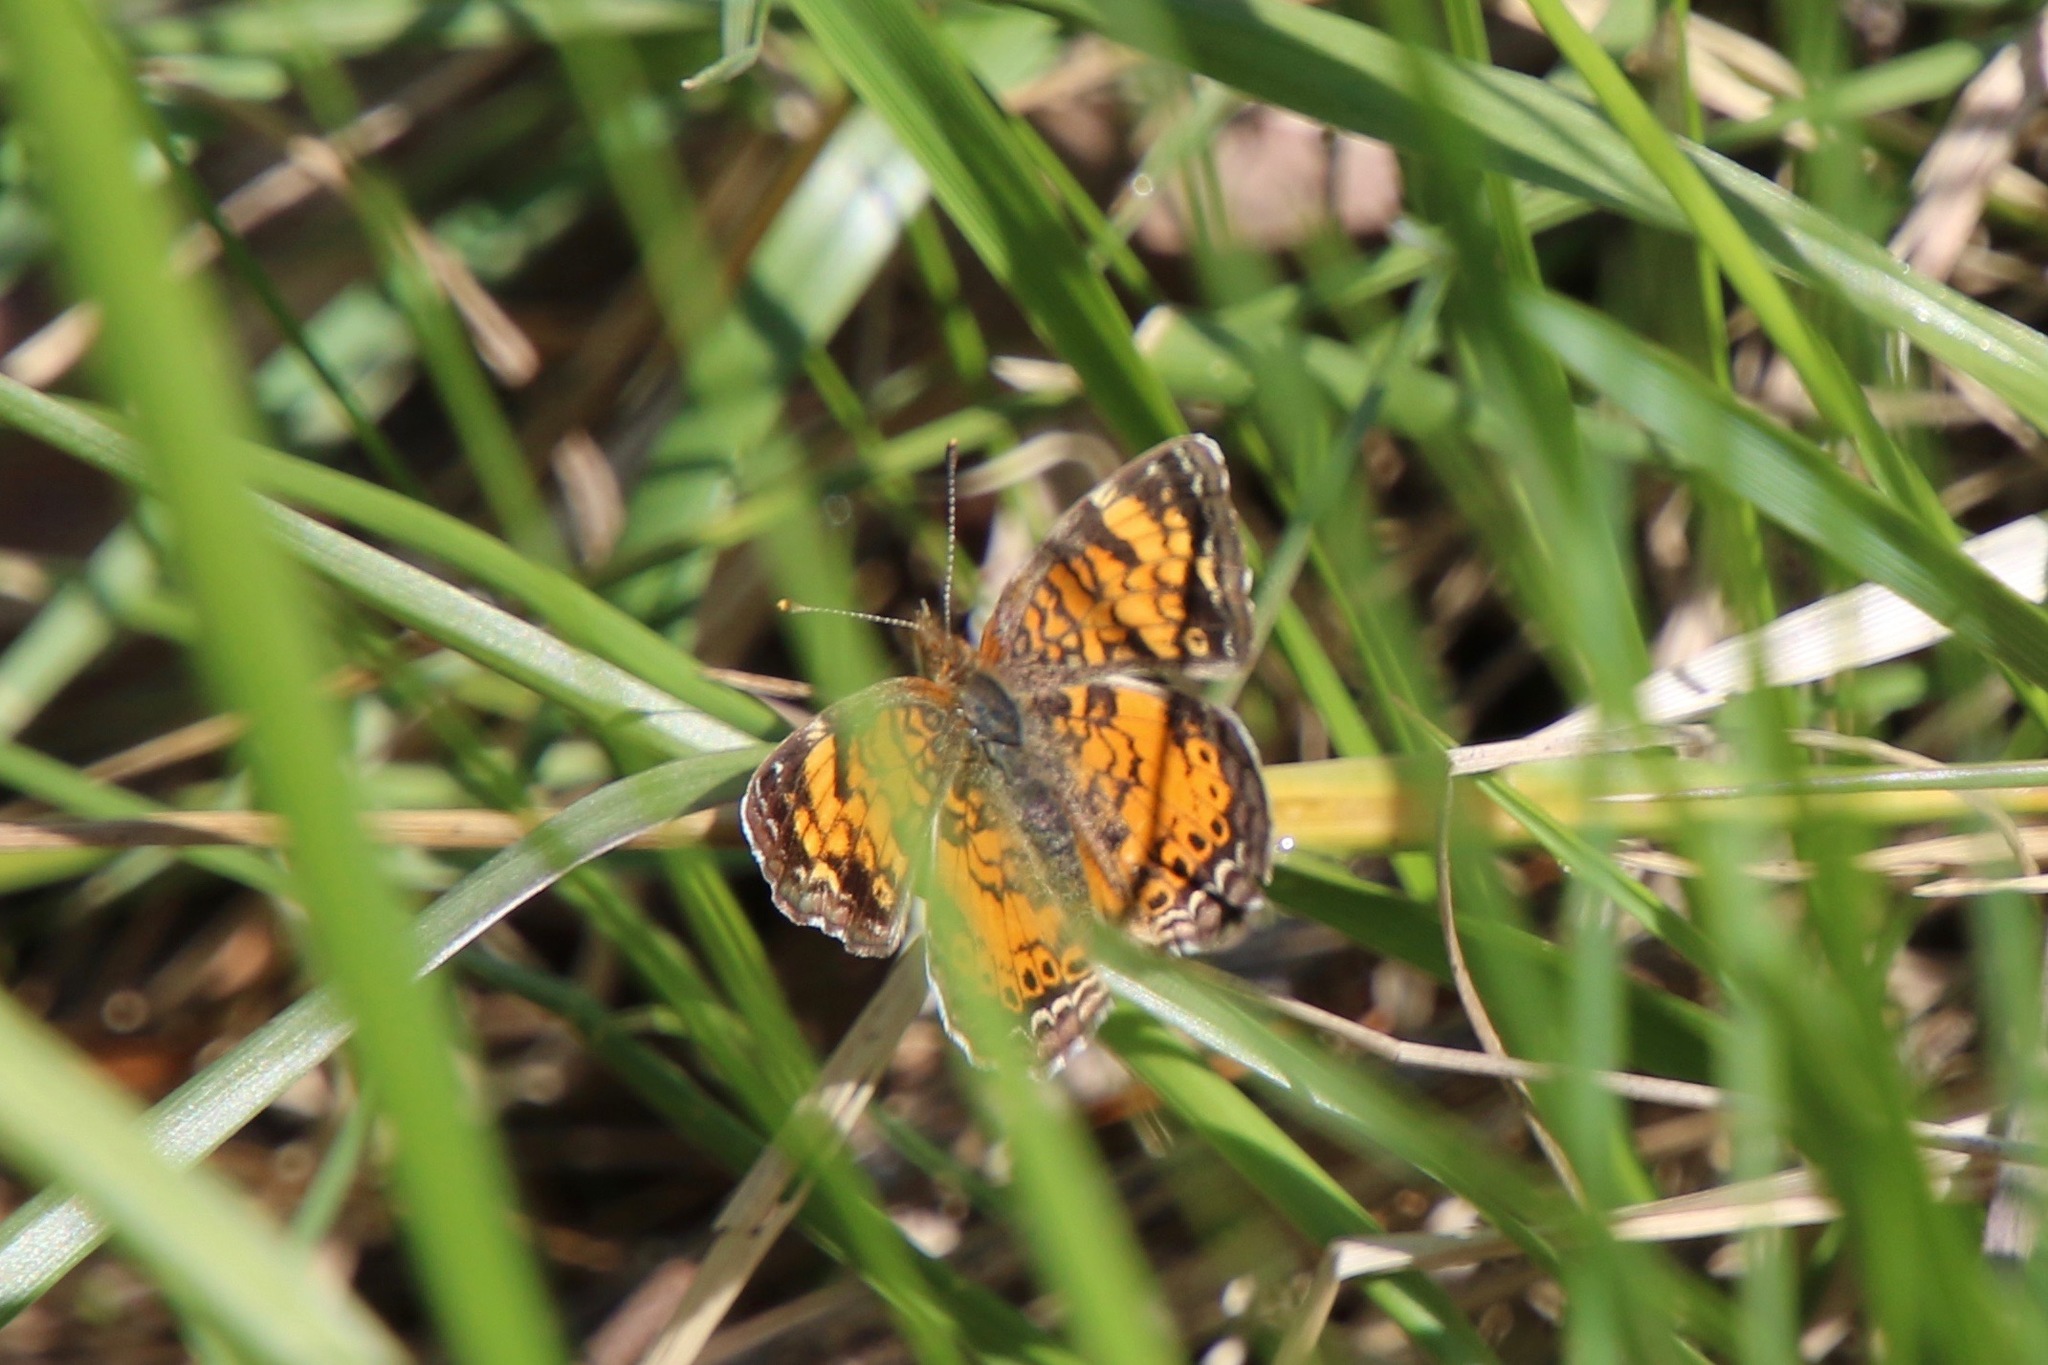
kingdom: Animalia
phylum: Arthropoda
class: Insecta
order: Lepidoptera
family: Nymphalidae
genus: Phyciodes
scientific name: Phyciodes tharos
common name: Pearl crescent
